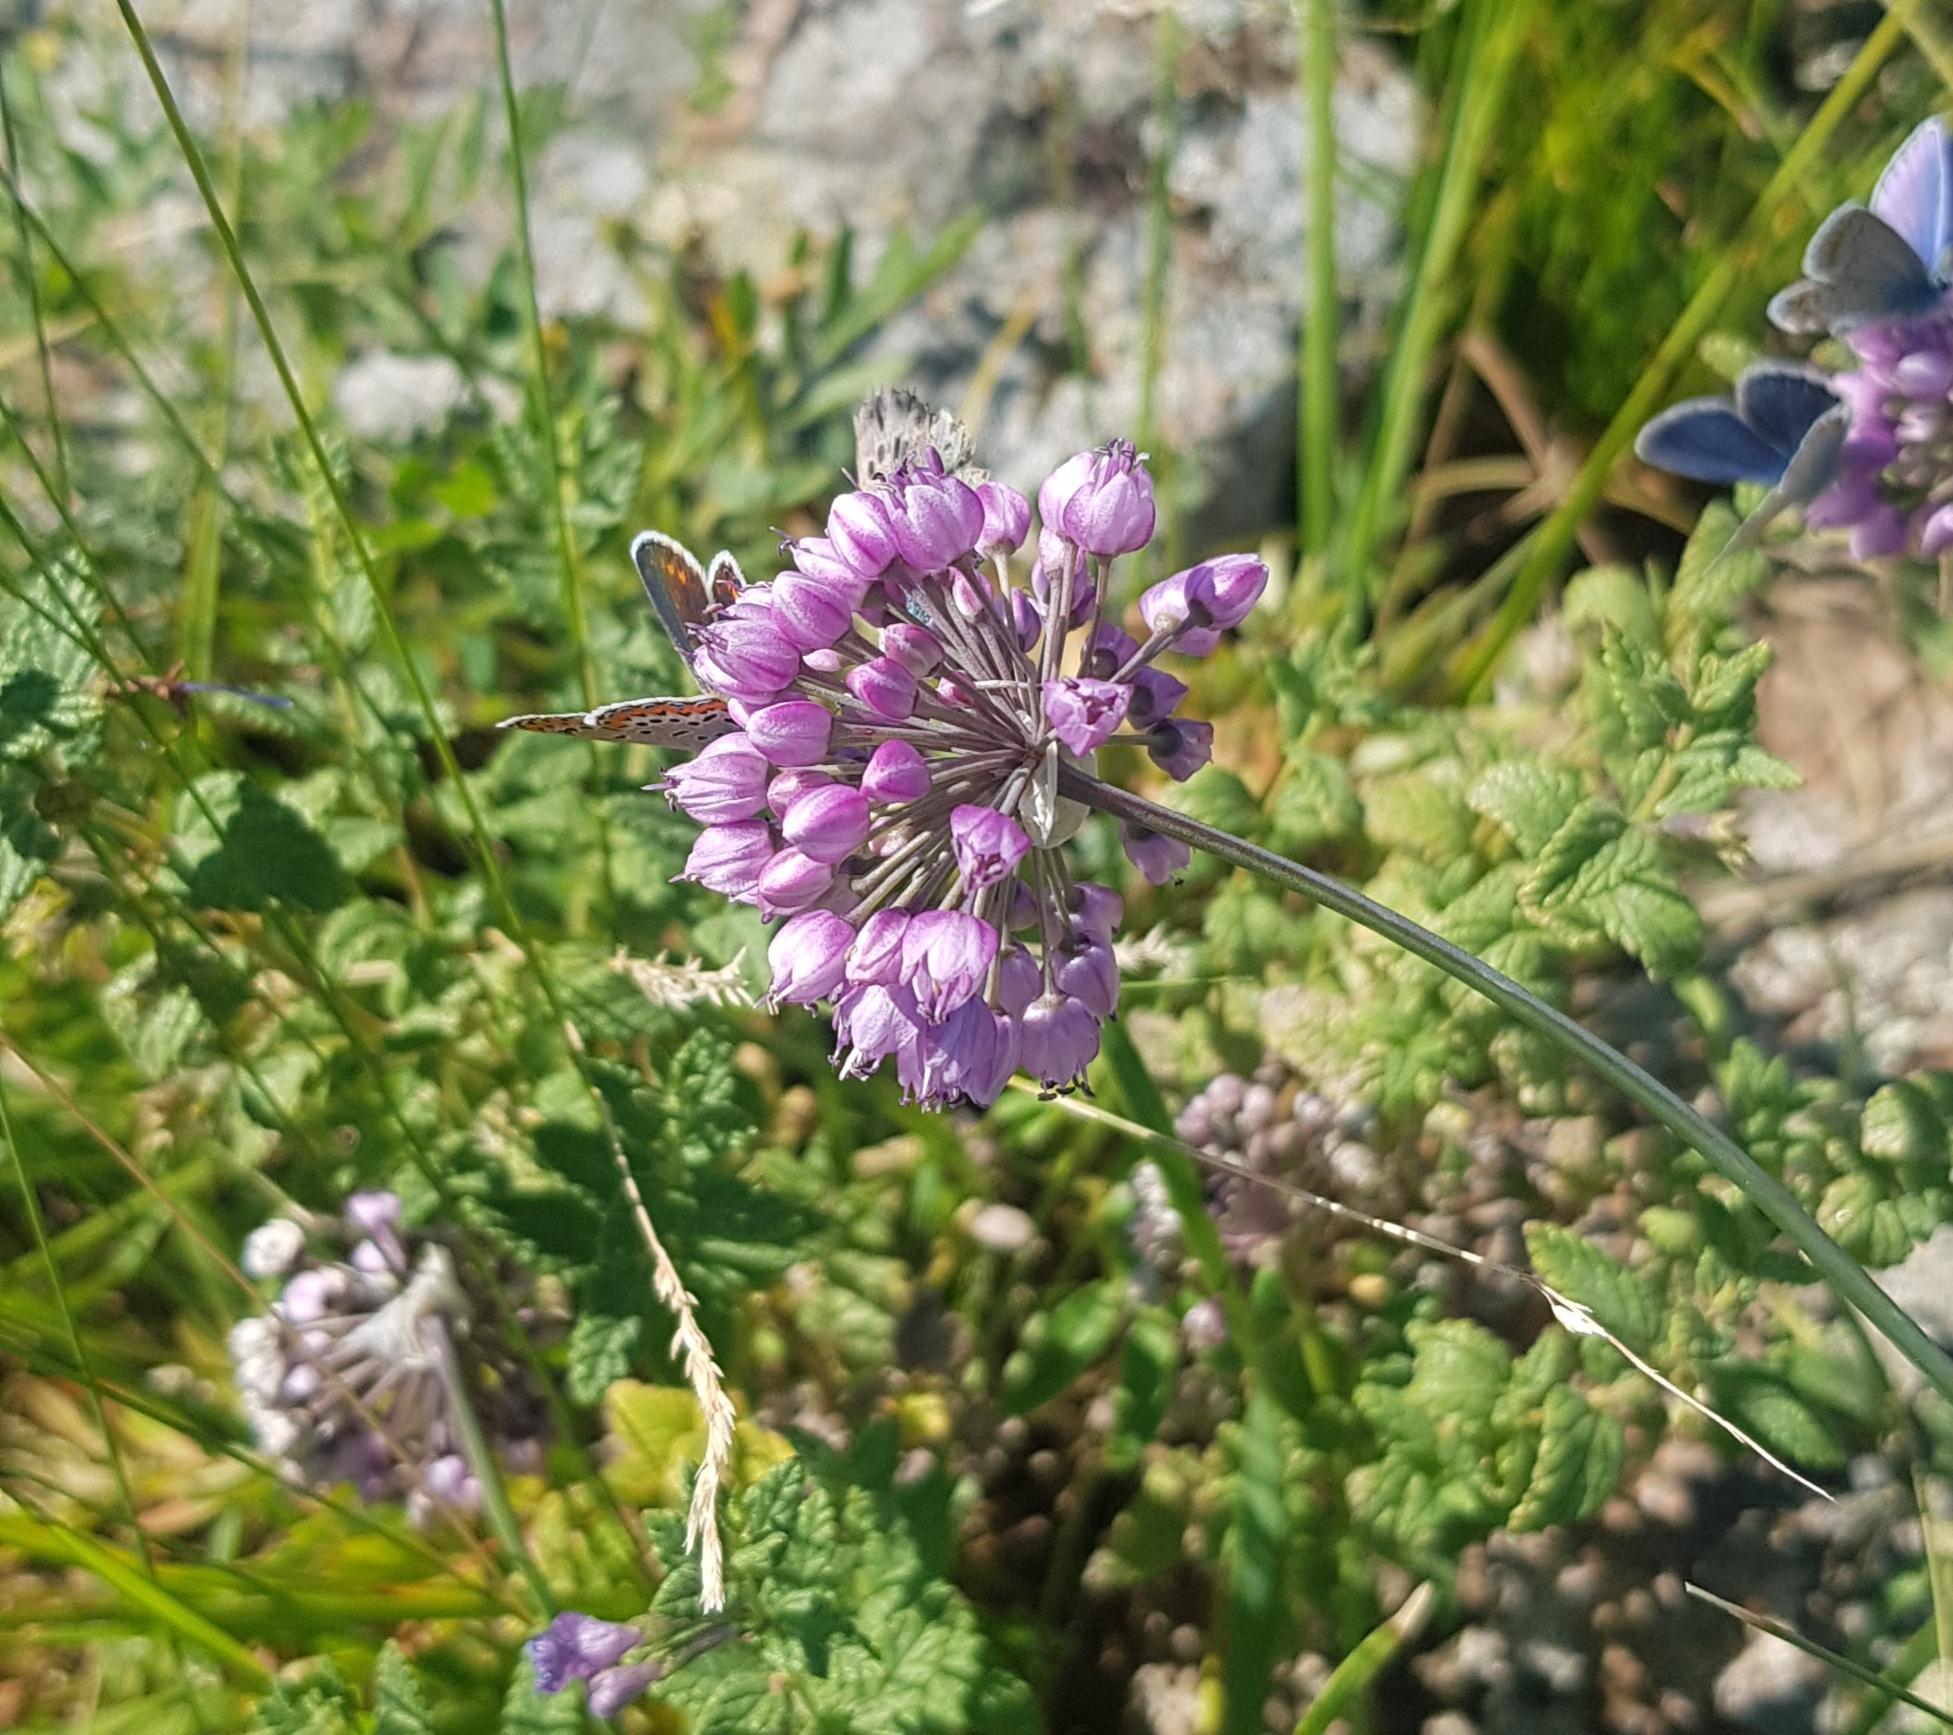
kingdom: Plantae
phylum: Tracheophyta
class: Liliopsida
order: Asparagales
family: Amaryllidaceae
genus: Allium
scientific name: Allium senescens
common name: German garlic
